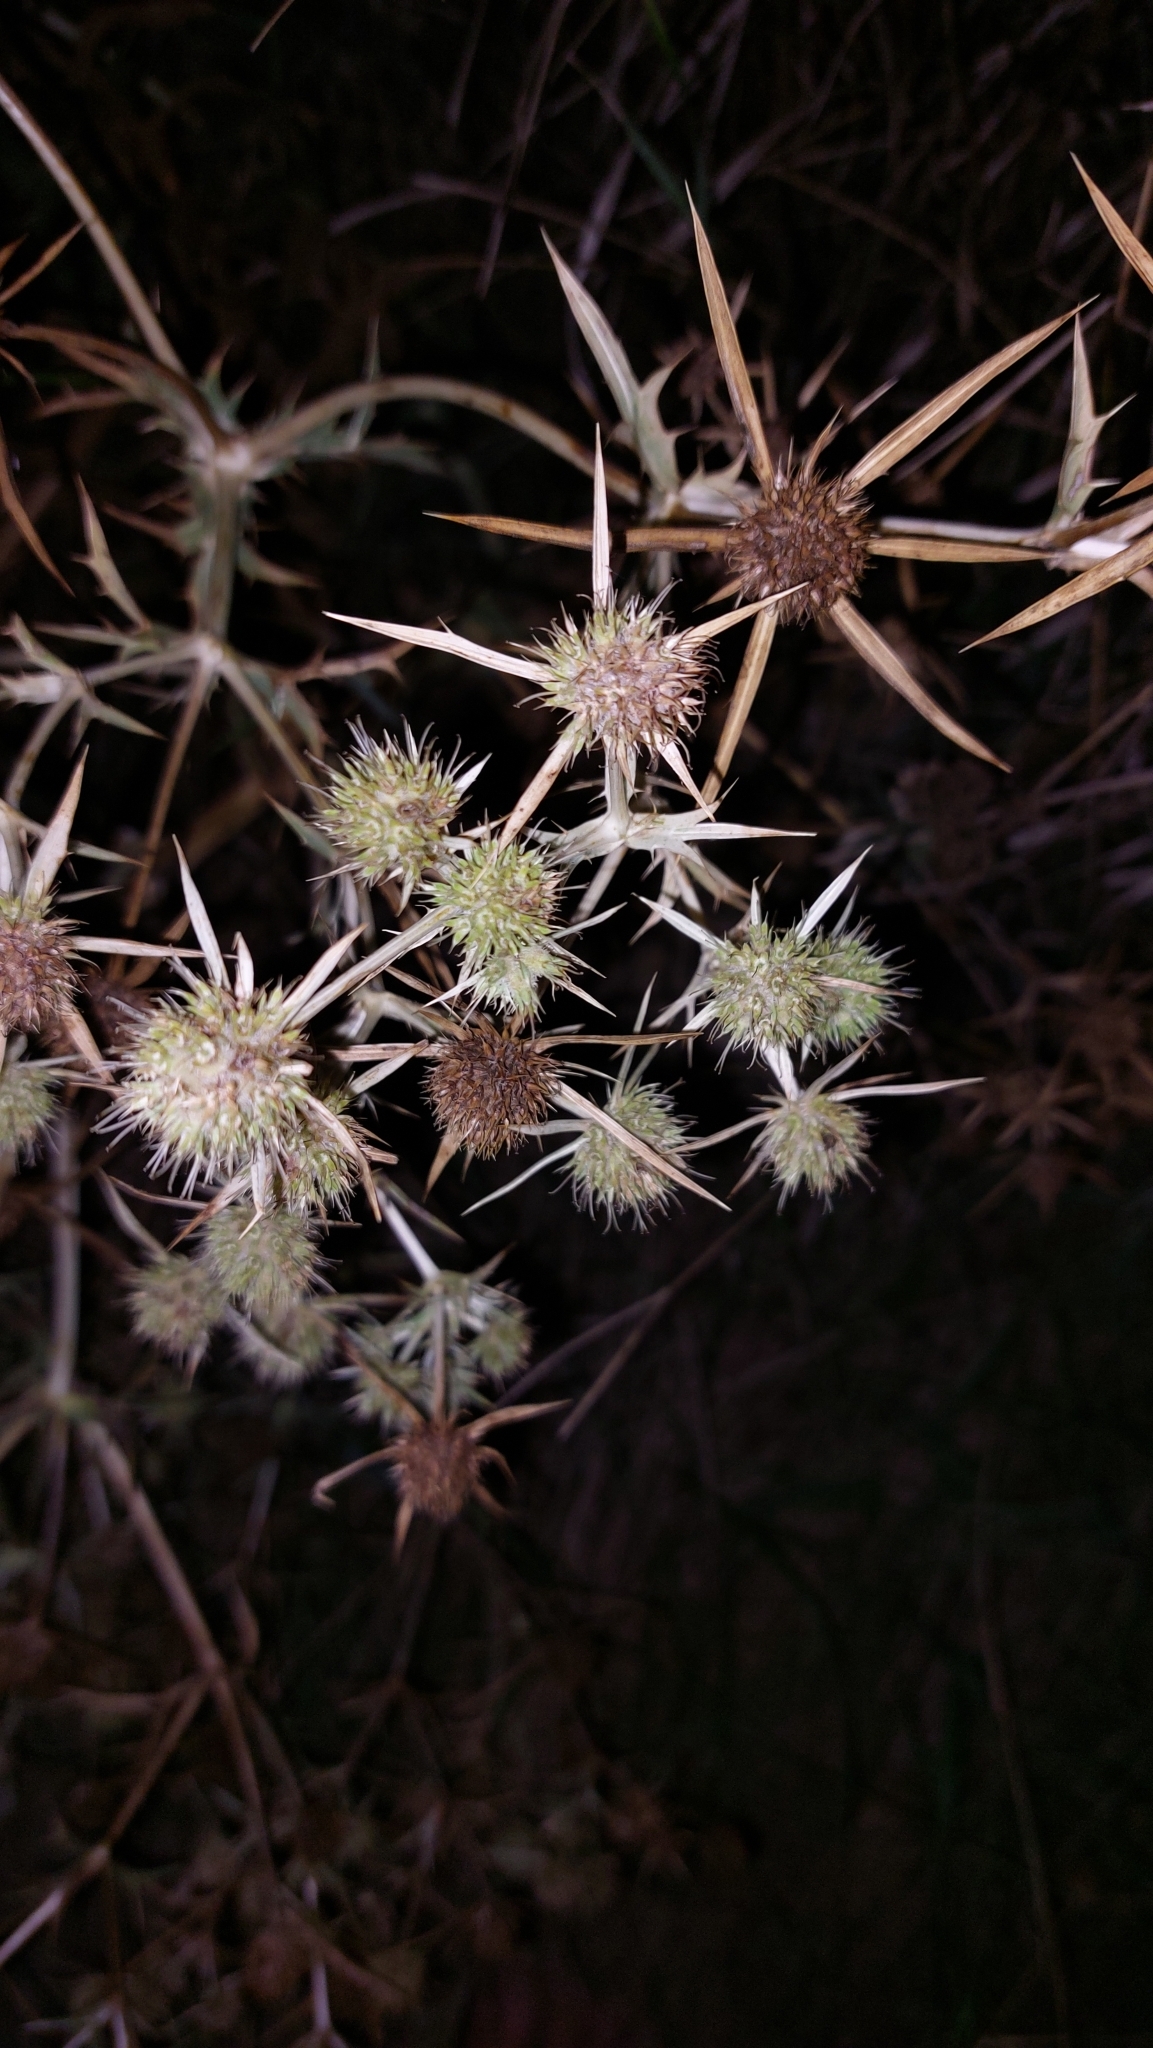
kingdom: Plantae
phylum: Tracheophyta
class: Magnoliopsida
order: Apiales
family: Apiaceae
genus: Eryngium
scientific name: Eryngium campestre
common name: Field eryngo
